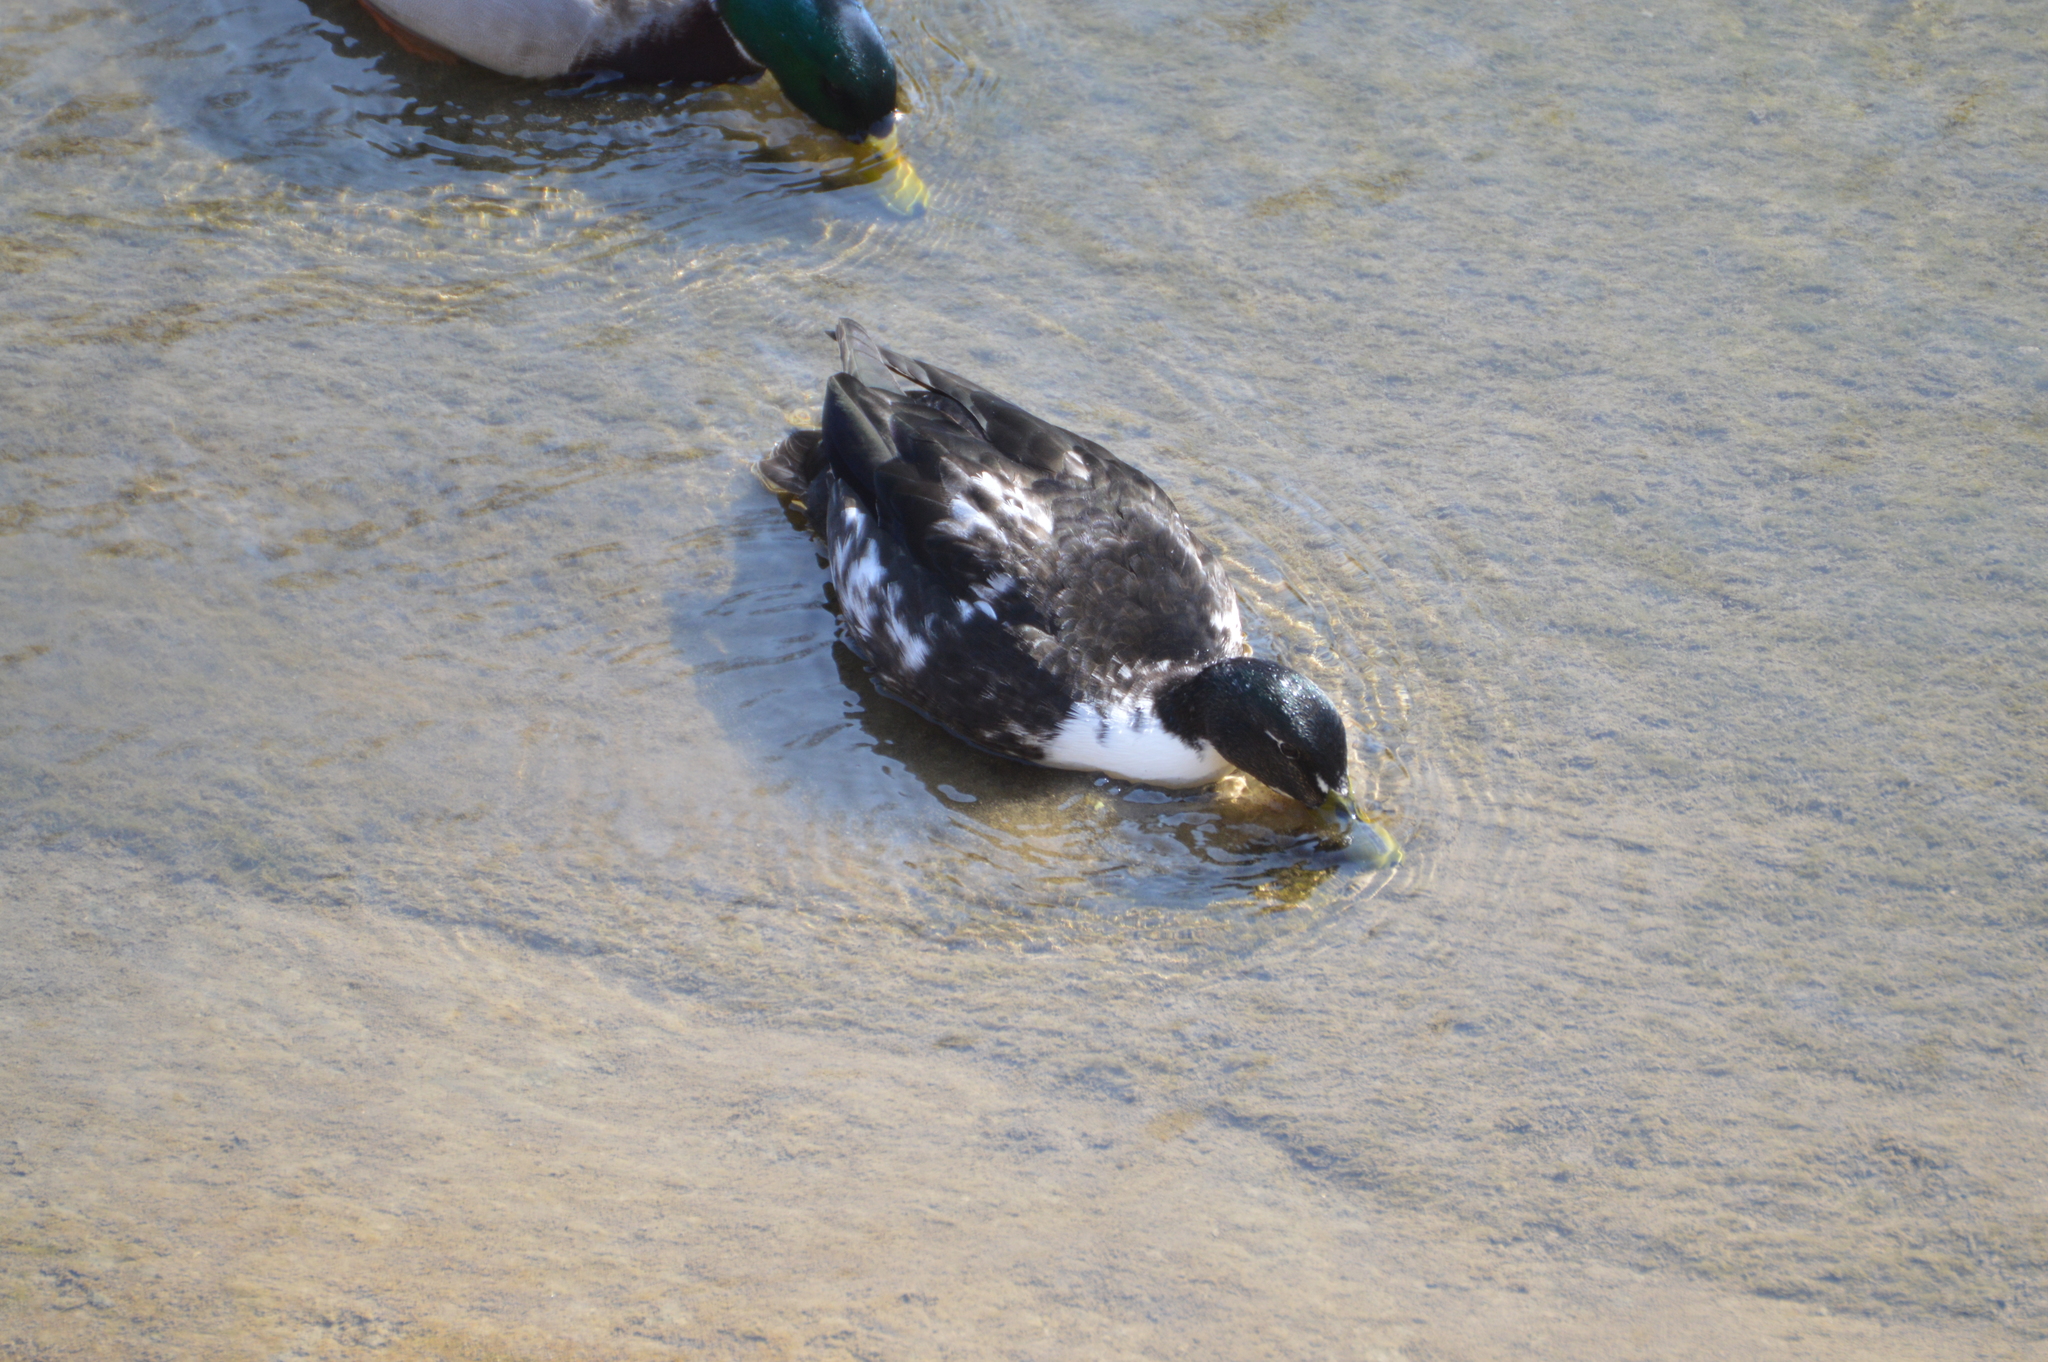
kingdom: Animalia
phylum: Chordata
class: Aves
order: Anseriformes
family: Anatidae
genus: Anas
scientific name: Anas platyrhynchos
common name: Mallard
